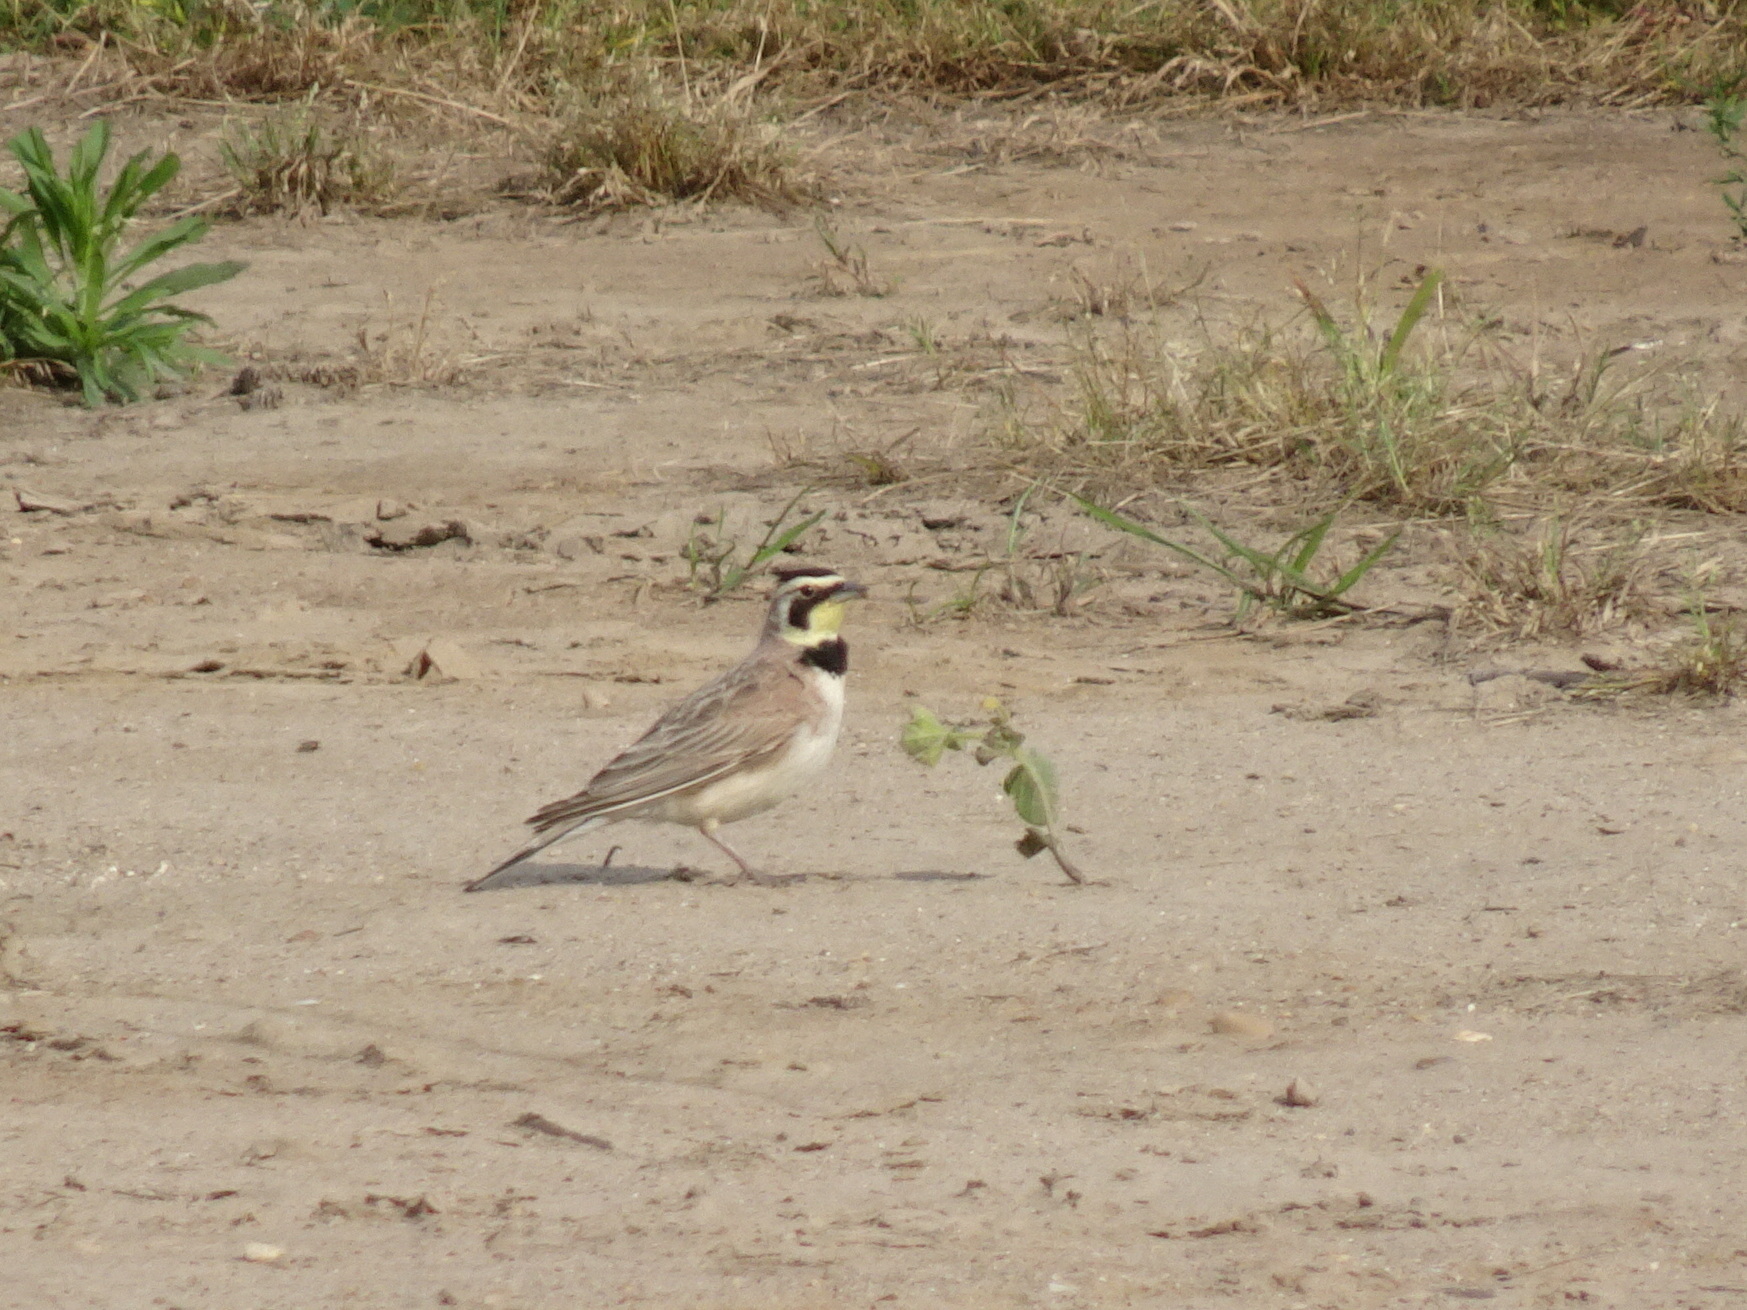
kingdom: Animalia
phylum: Chordata
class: Aves
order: Passeriformes
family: Alaudidae
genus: Eremophila
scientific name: Eremophila alpestris
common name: Horned lark
